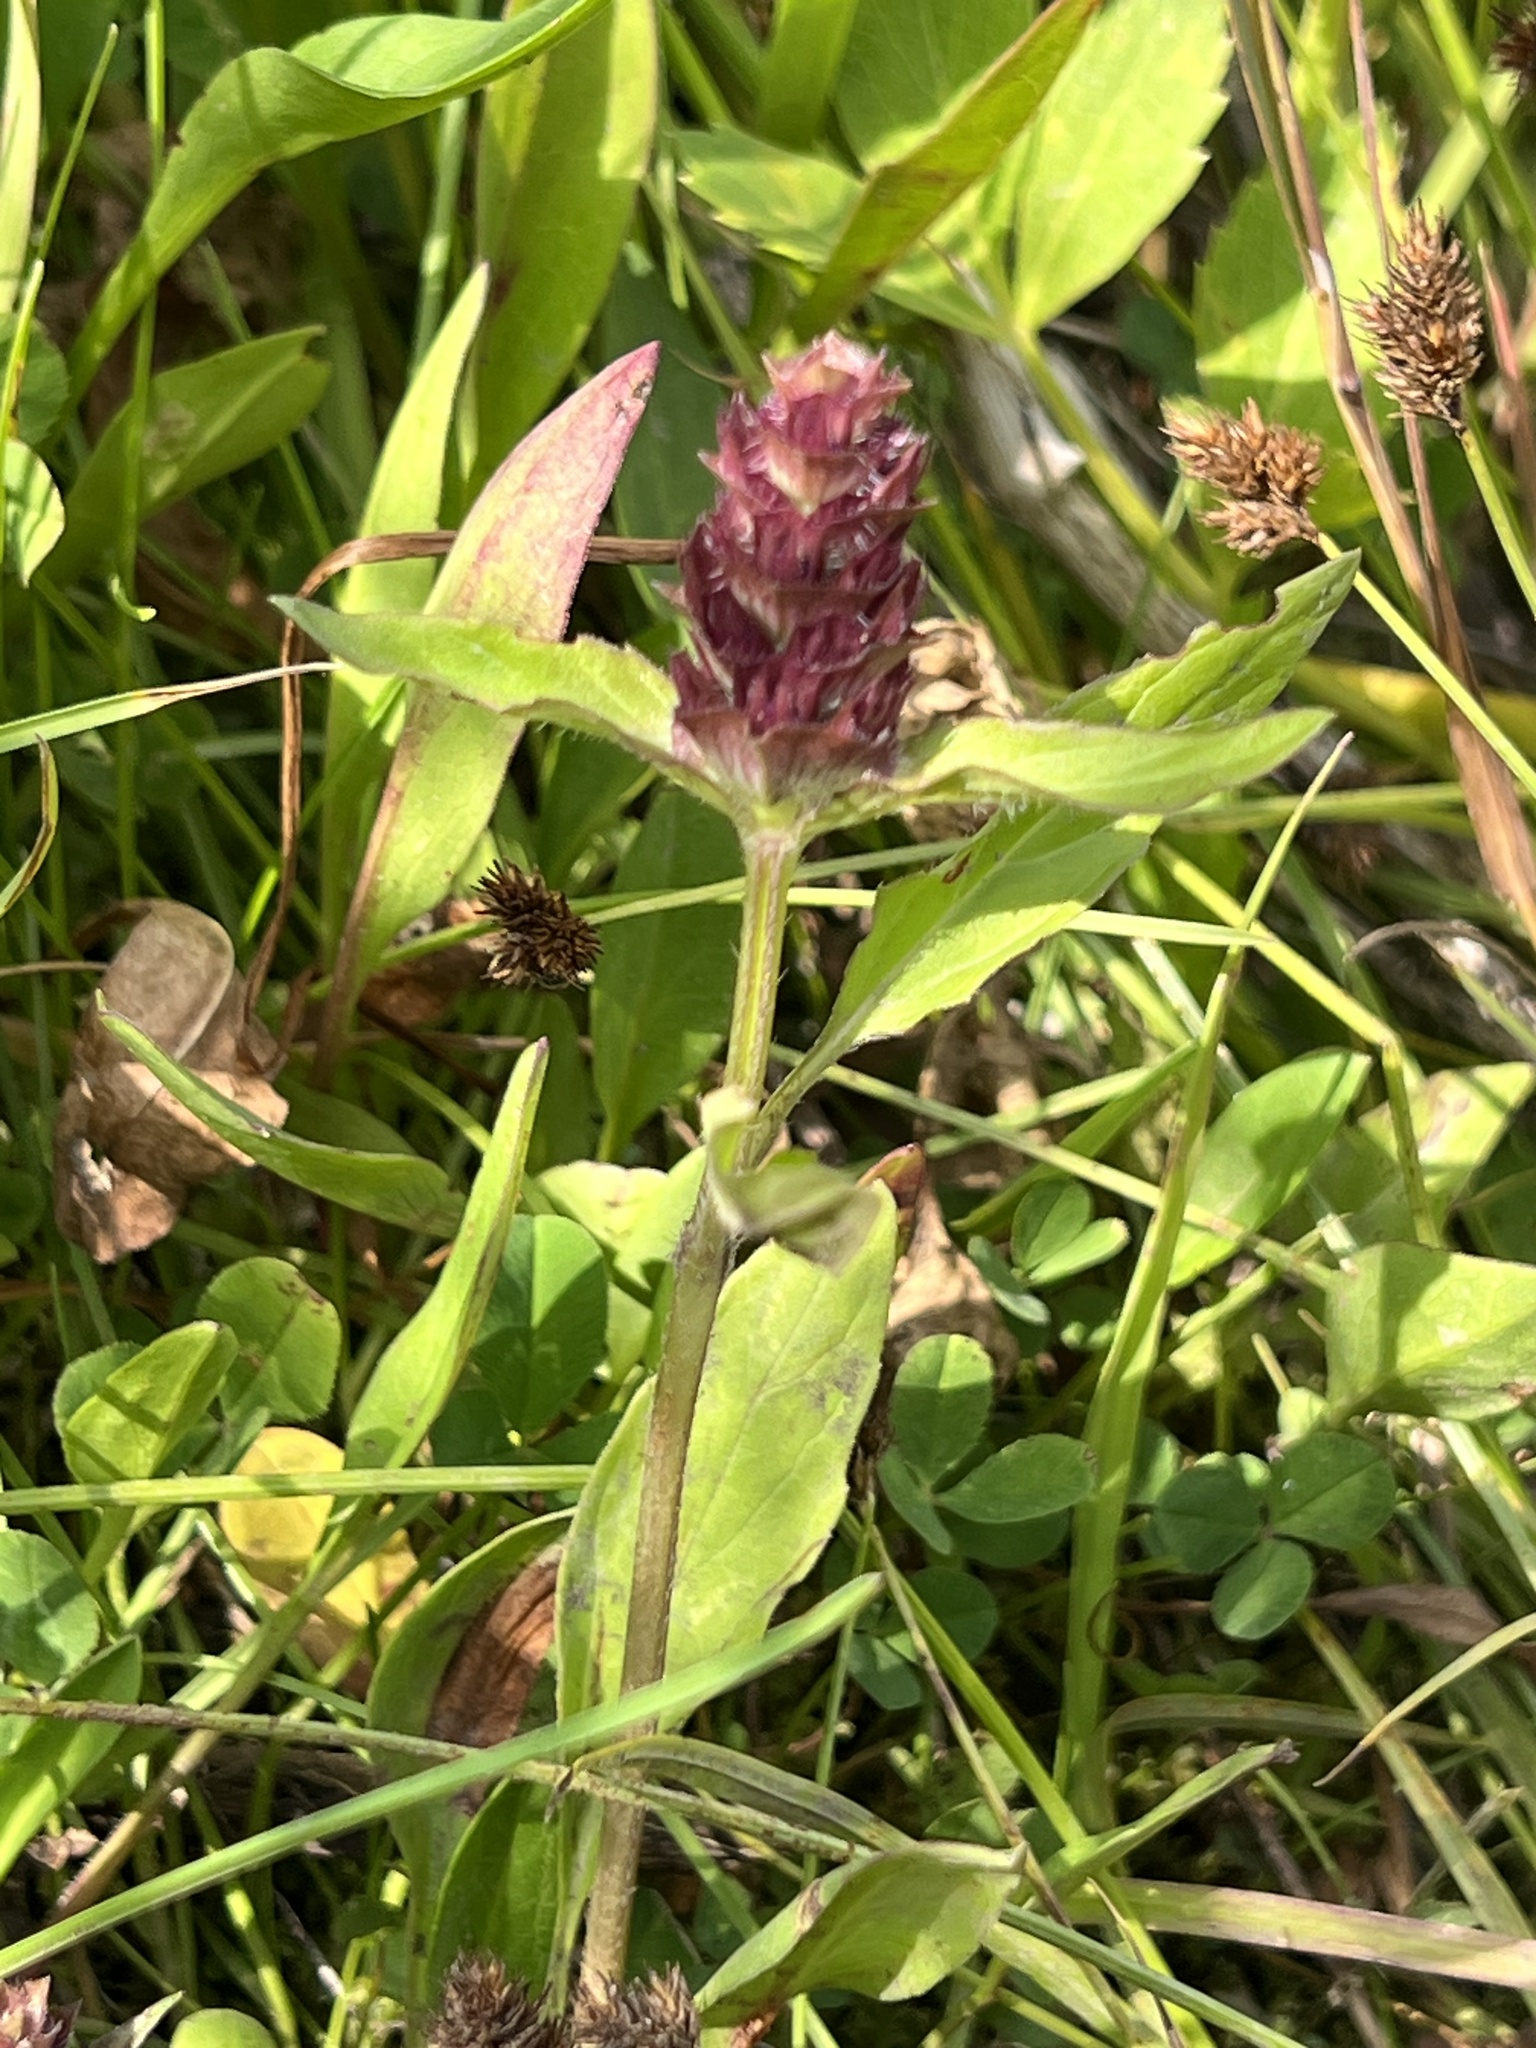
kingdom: Plantae
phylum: Tracheophyta
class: Magnoliopsida
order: Lamiales
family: Lamiaceae
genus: Prunella
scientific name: Prunella vulgaris
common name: Heal-all
